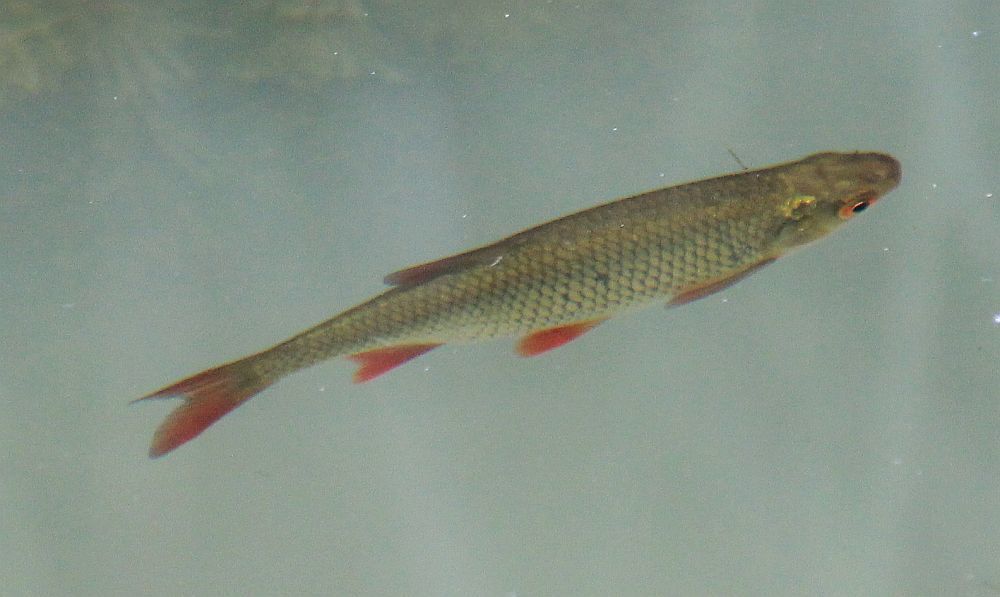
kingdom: Animalia
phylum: Chordata
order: Cypriniformes
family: Cyprinidae
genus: Scardinius
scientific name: Scardinius erythrophthalmus
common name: Rudd
